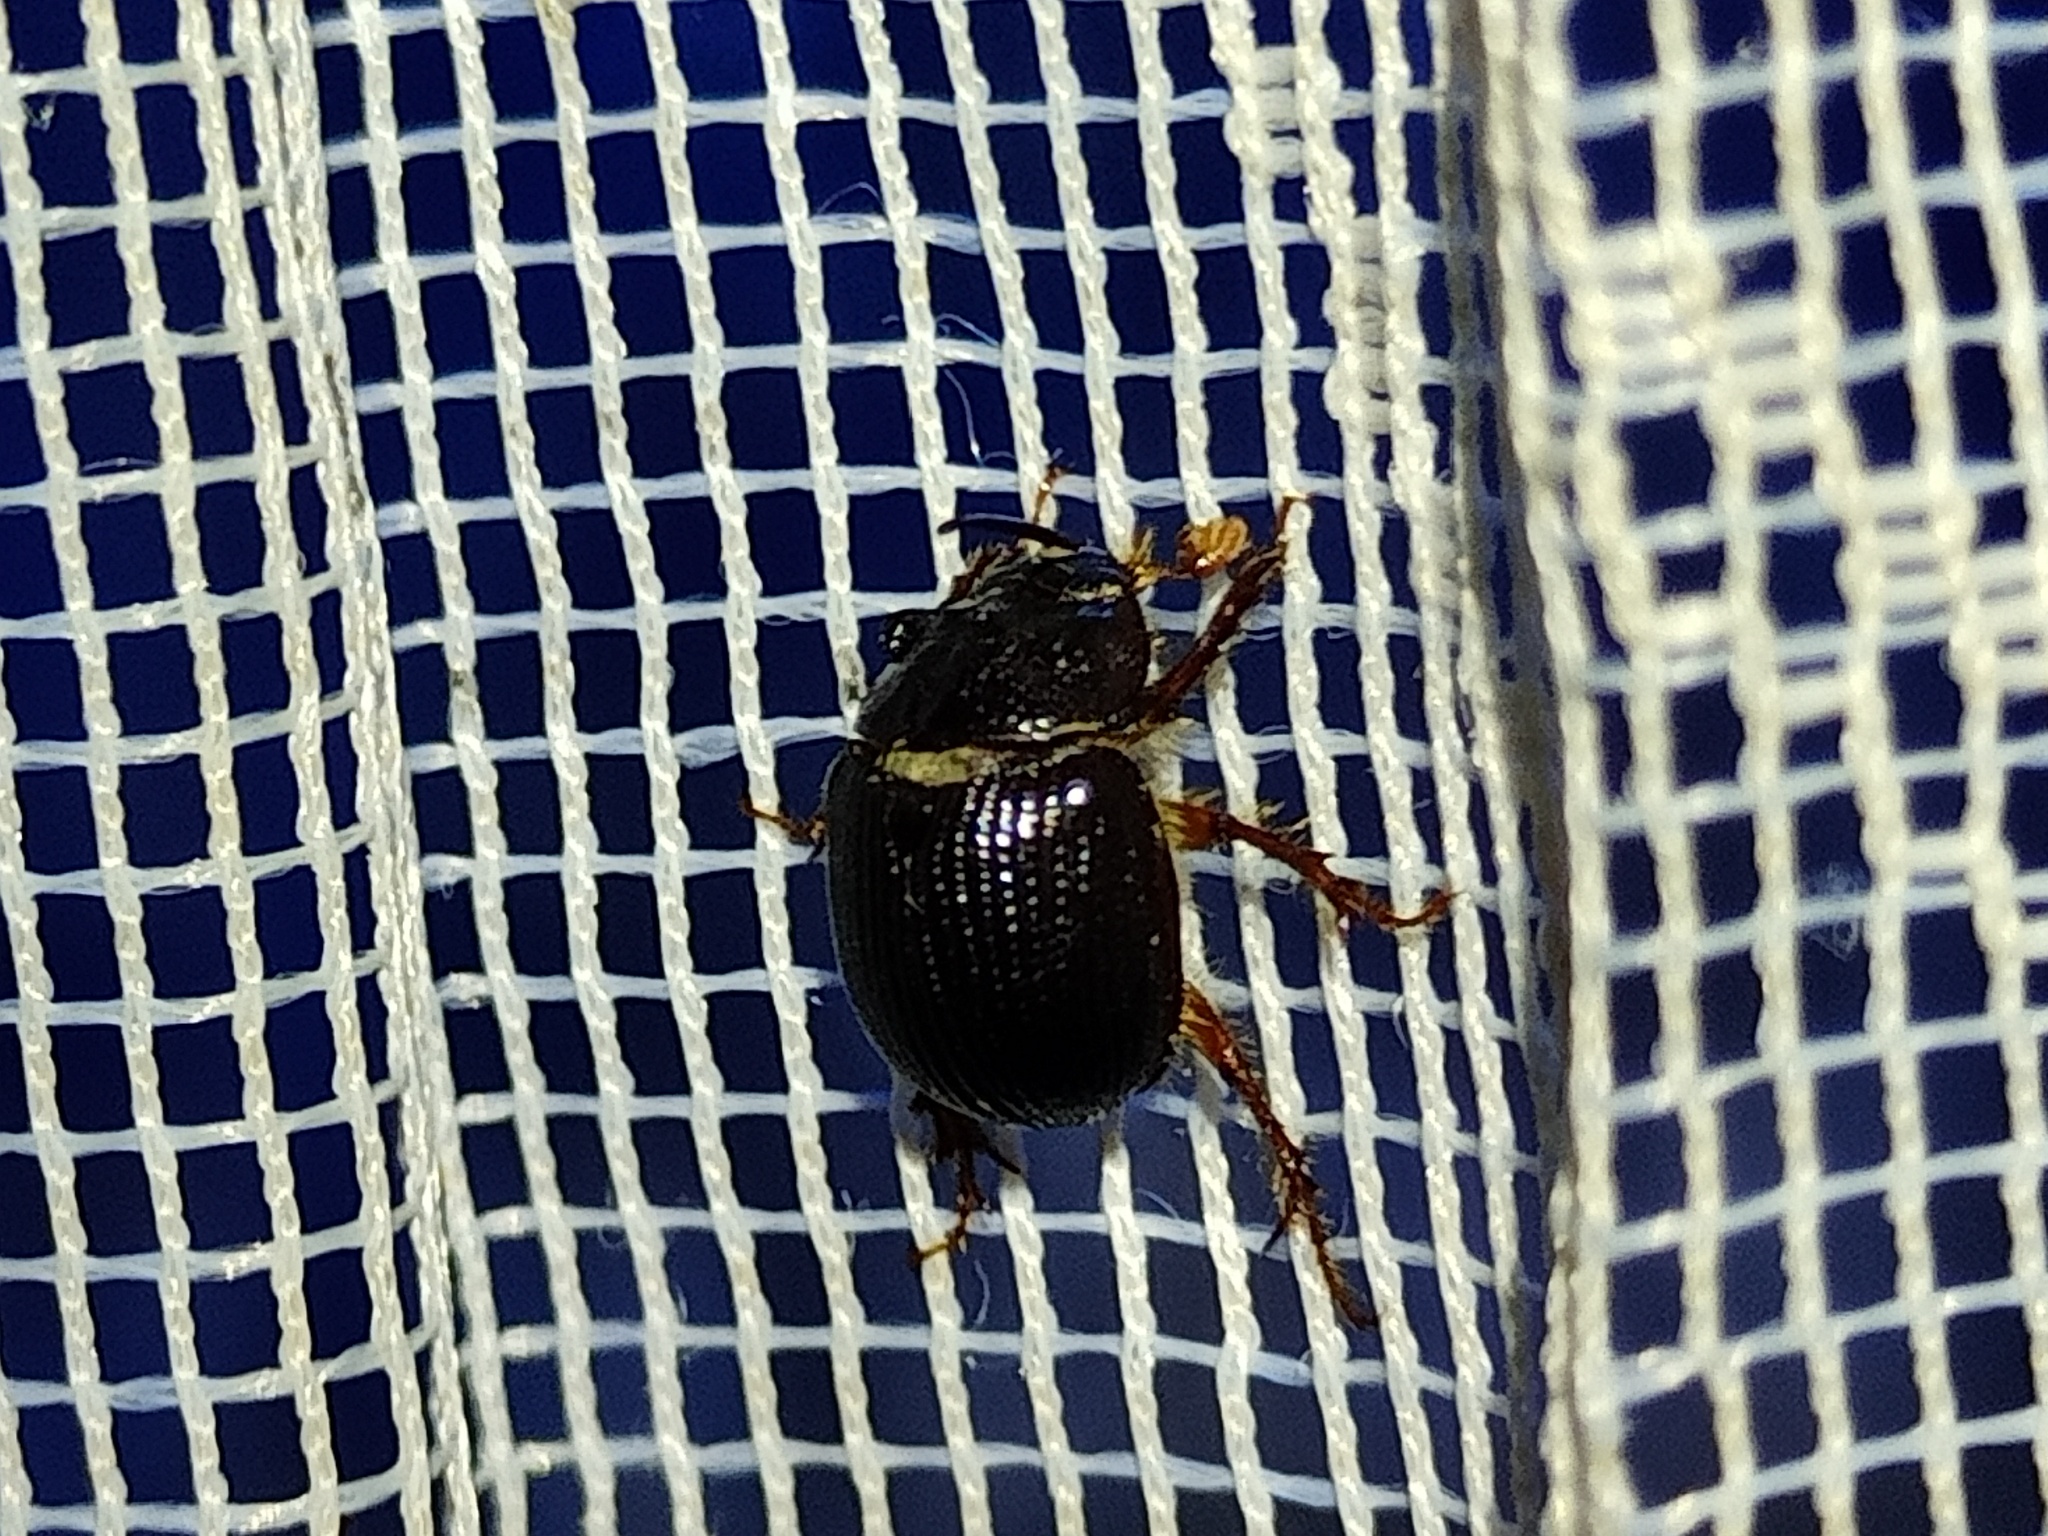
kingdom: Animalia
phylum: Arthropoda
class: Insecta
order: Coleoptera
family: Geotrupidae
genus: Odonteus
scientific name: Odonteus armiger
